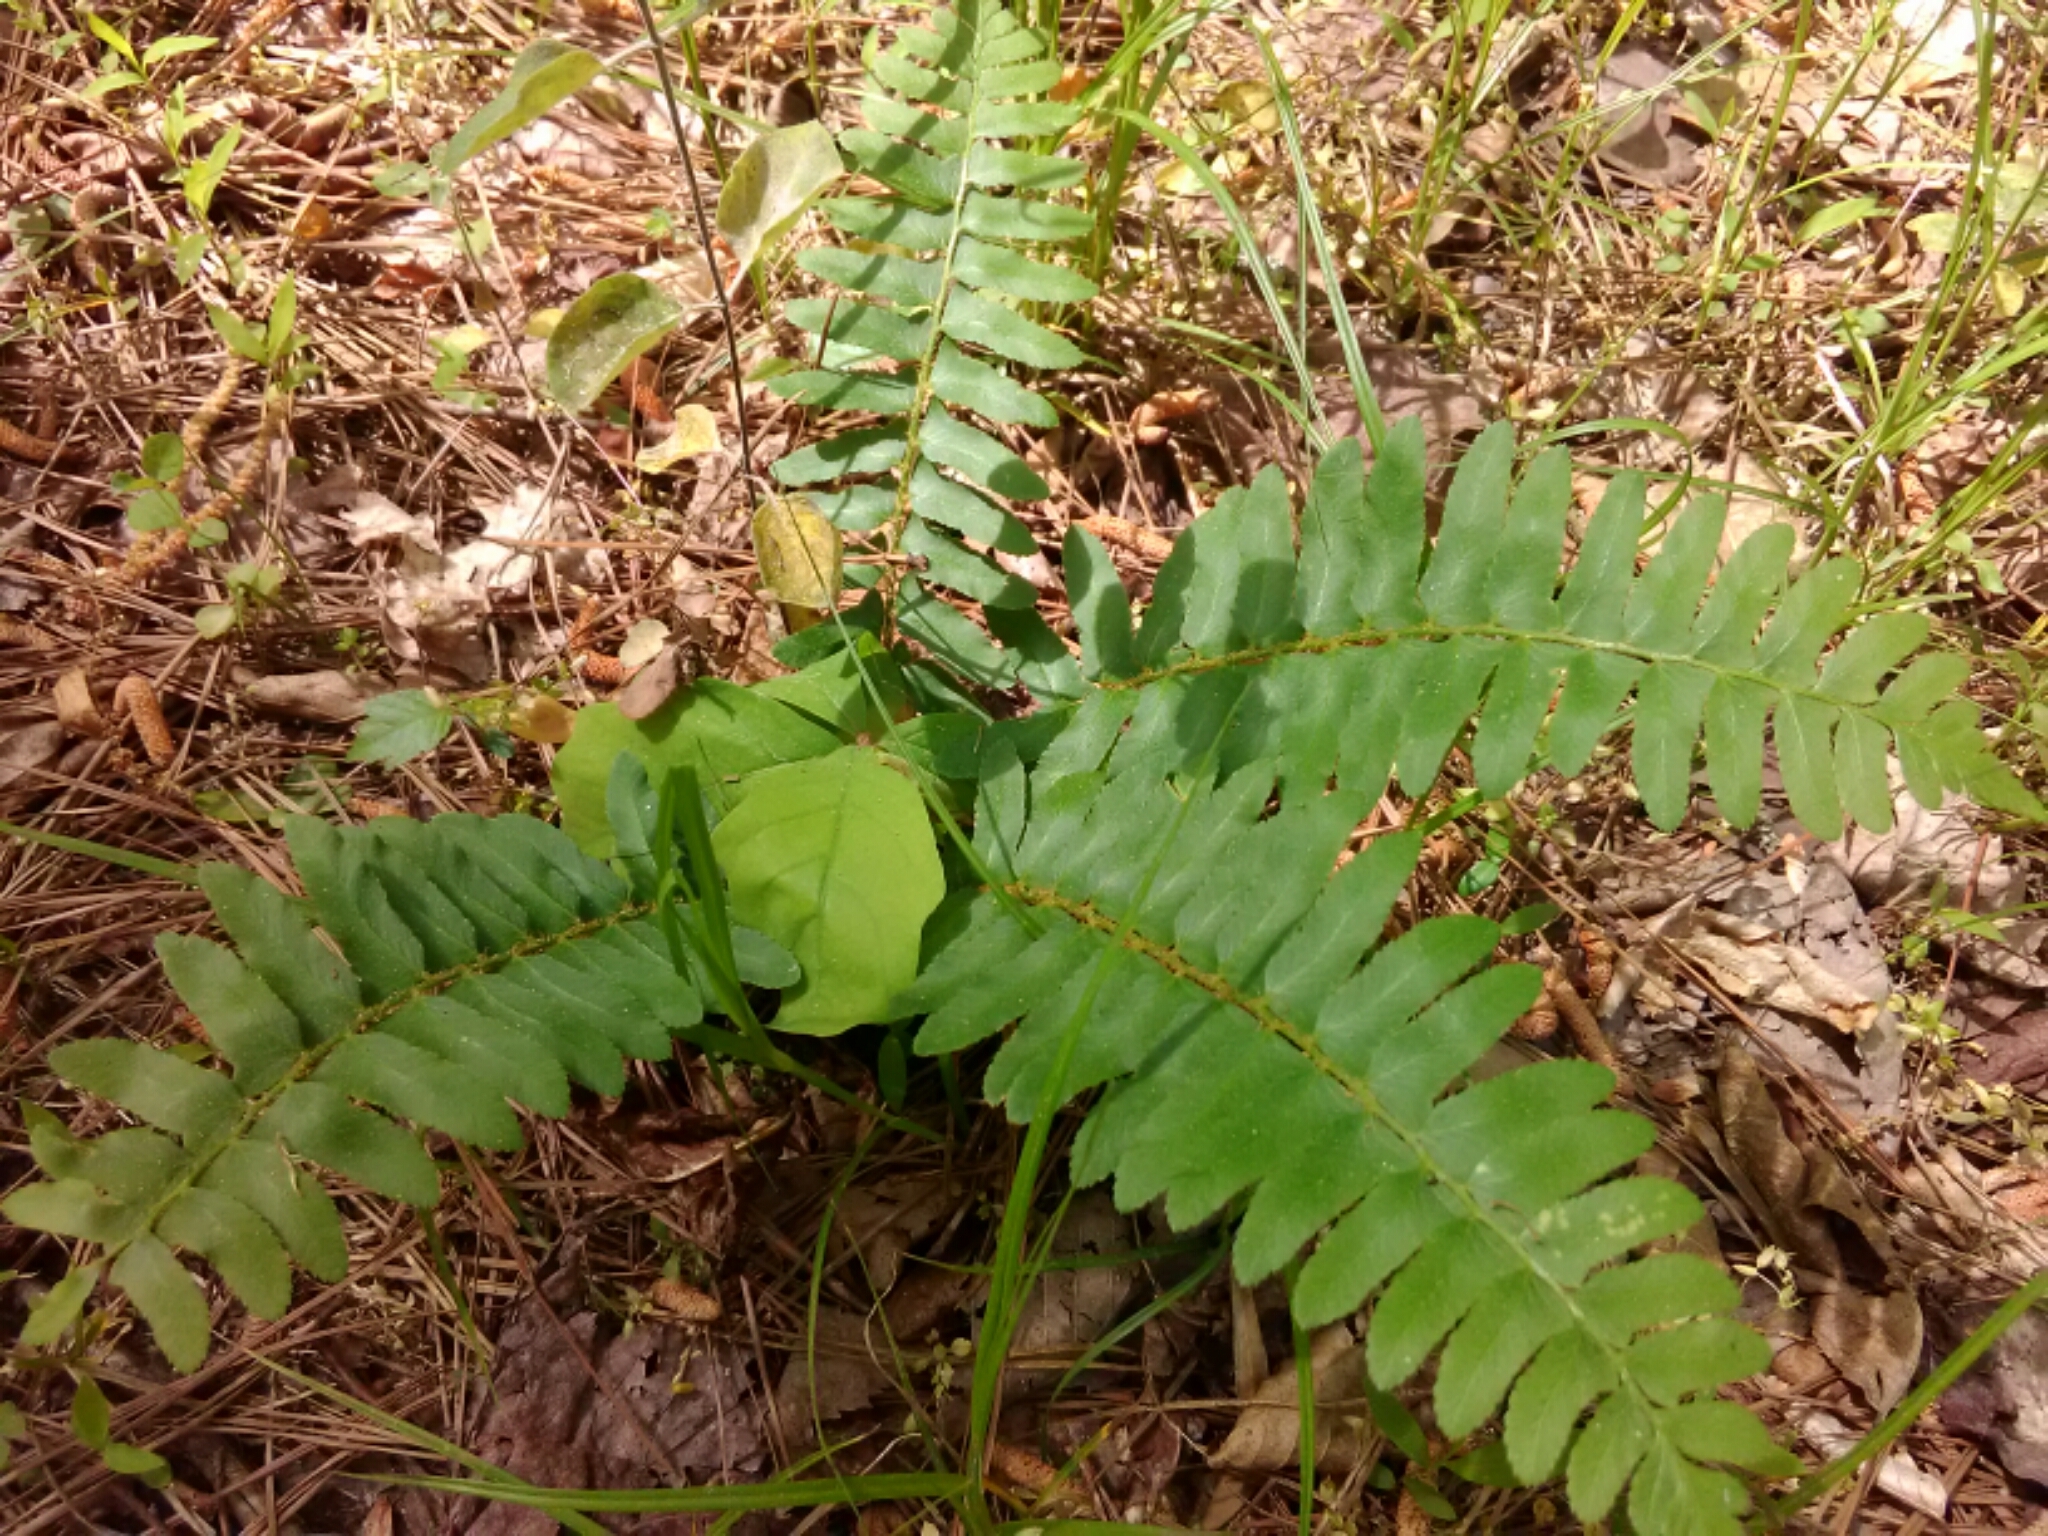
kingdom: Plantae
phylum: Tracheophyta
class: Polypodiopsida
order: Polypodiales
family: Dryopteridaceae
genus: Polystichum
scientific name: Polystichum acrostichoides
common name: Christmas fern
